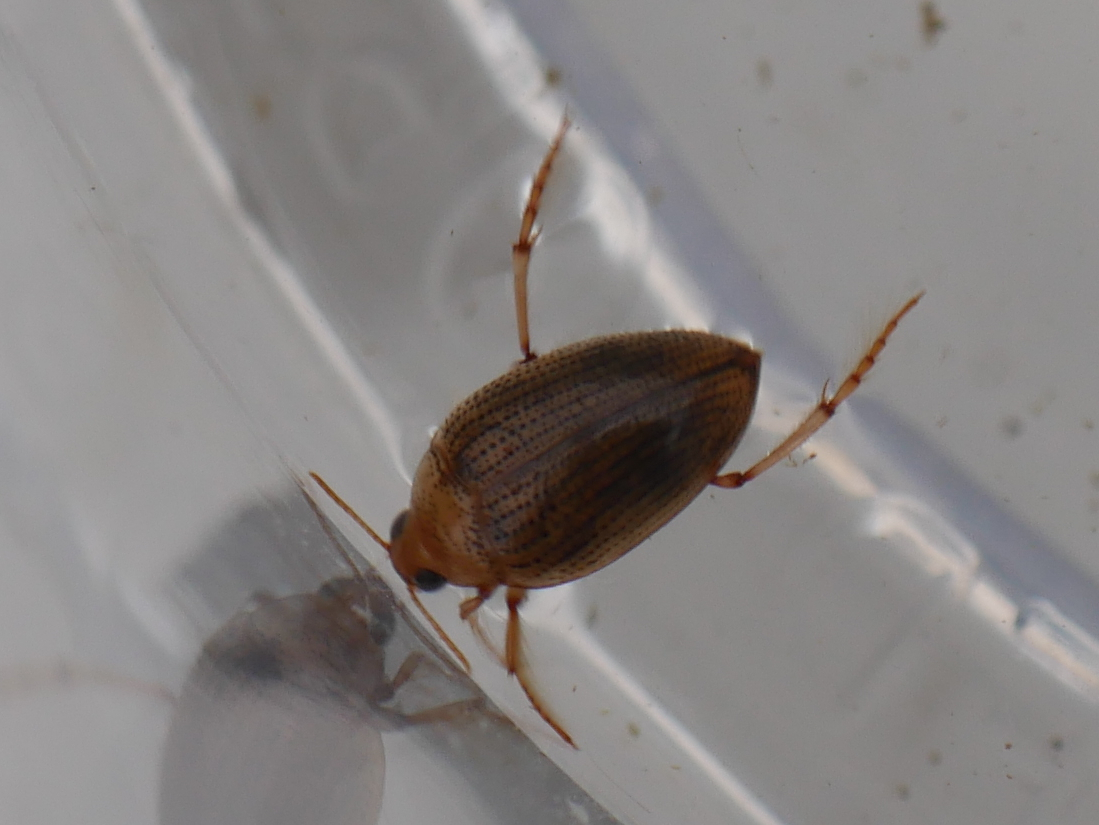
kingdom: Animalia
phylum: Arthropoda
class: Insecta
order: Coleoptera
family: Haliplidae
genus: Haliplus
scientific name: Haliplus flavicollis
